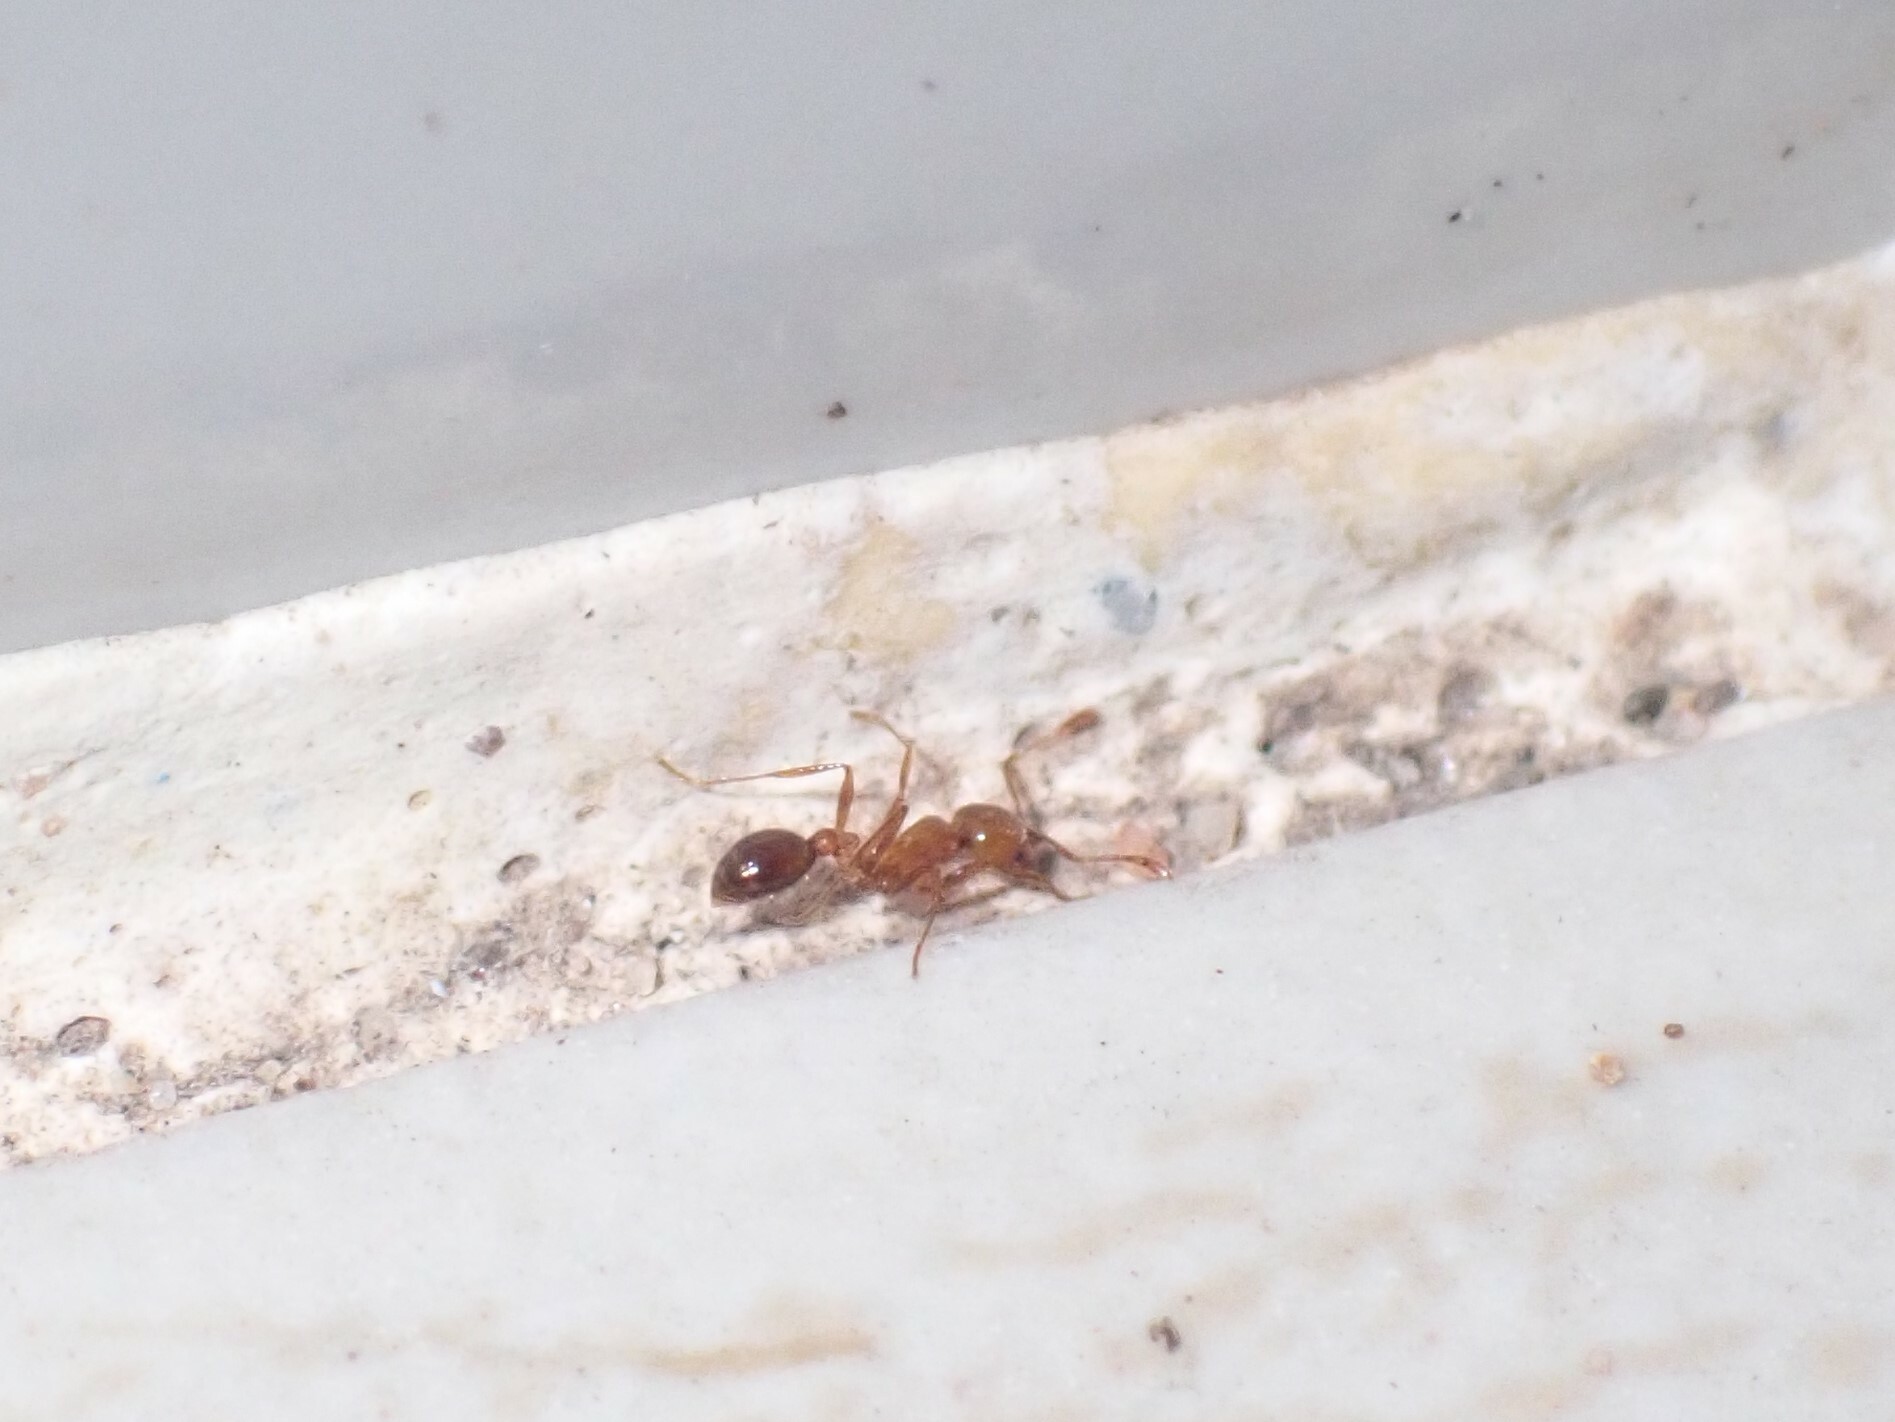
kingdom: Animalia
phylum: Arthropoda
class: Insecta
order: Hymenoptera
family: Formicidae
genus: Solenopsis
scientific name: Solenopsis geminata
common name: Tropical fire ant
